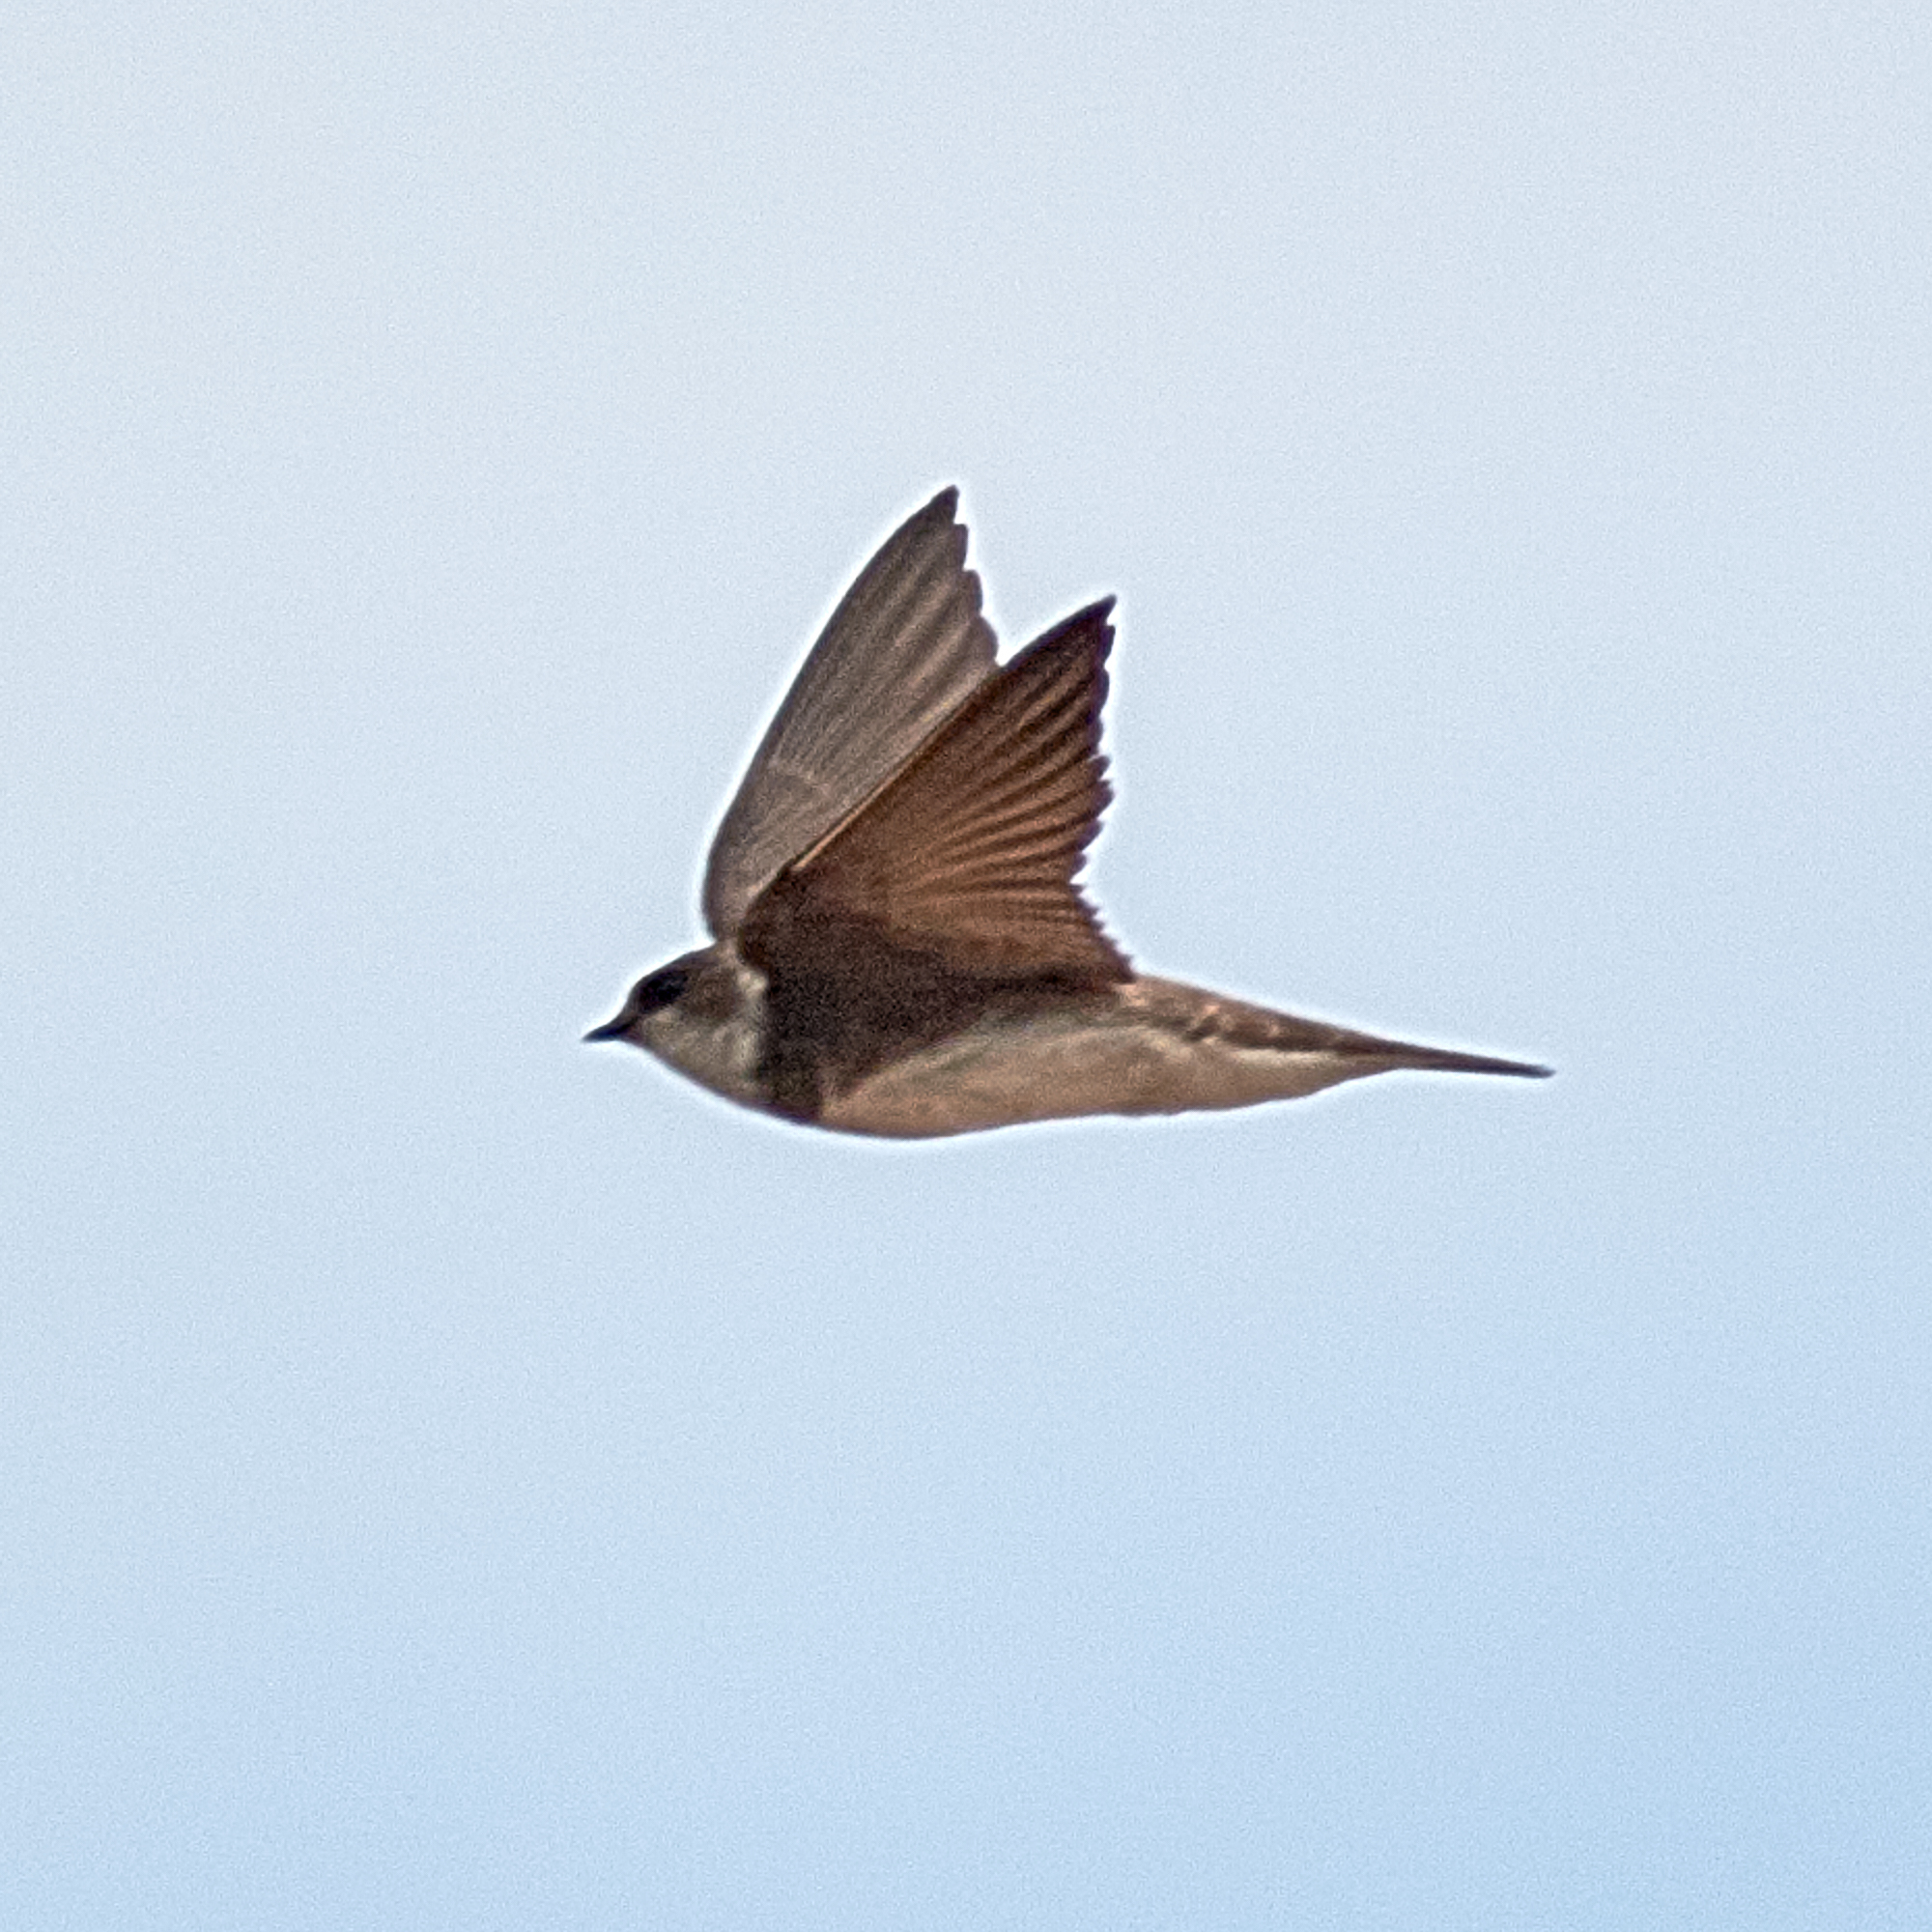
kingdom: Animalia
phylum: Chordata
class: Aves
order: Passeriformes
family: Hirundinidae
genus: Riparia
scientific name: Riparia riparia
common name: Sand martin
